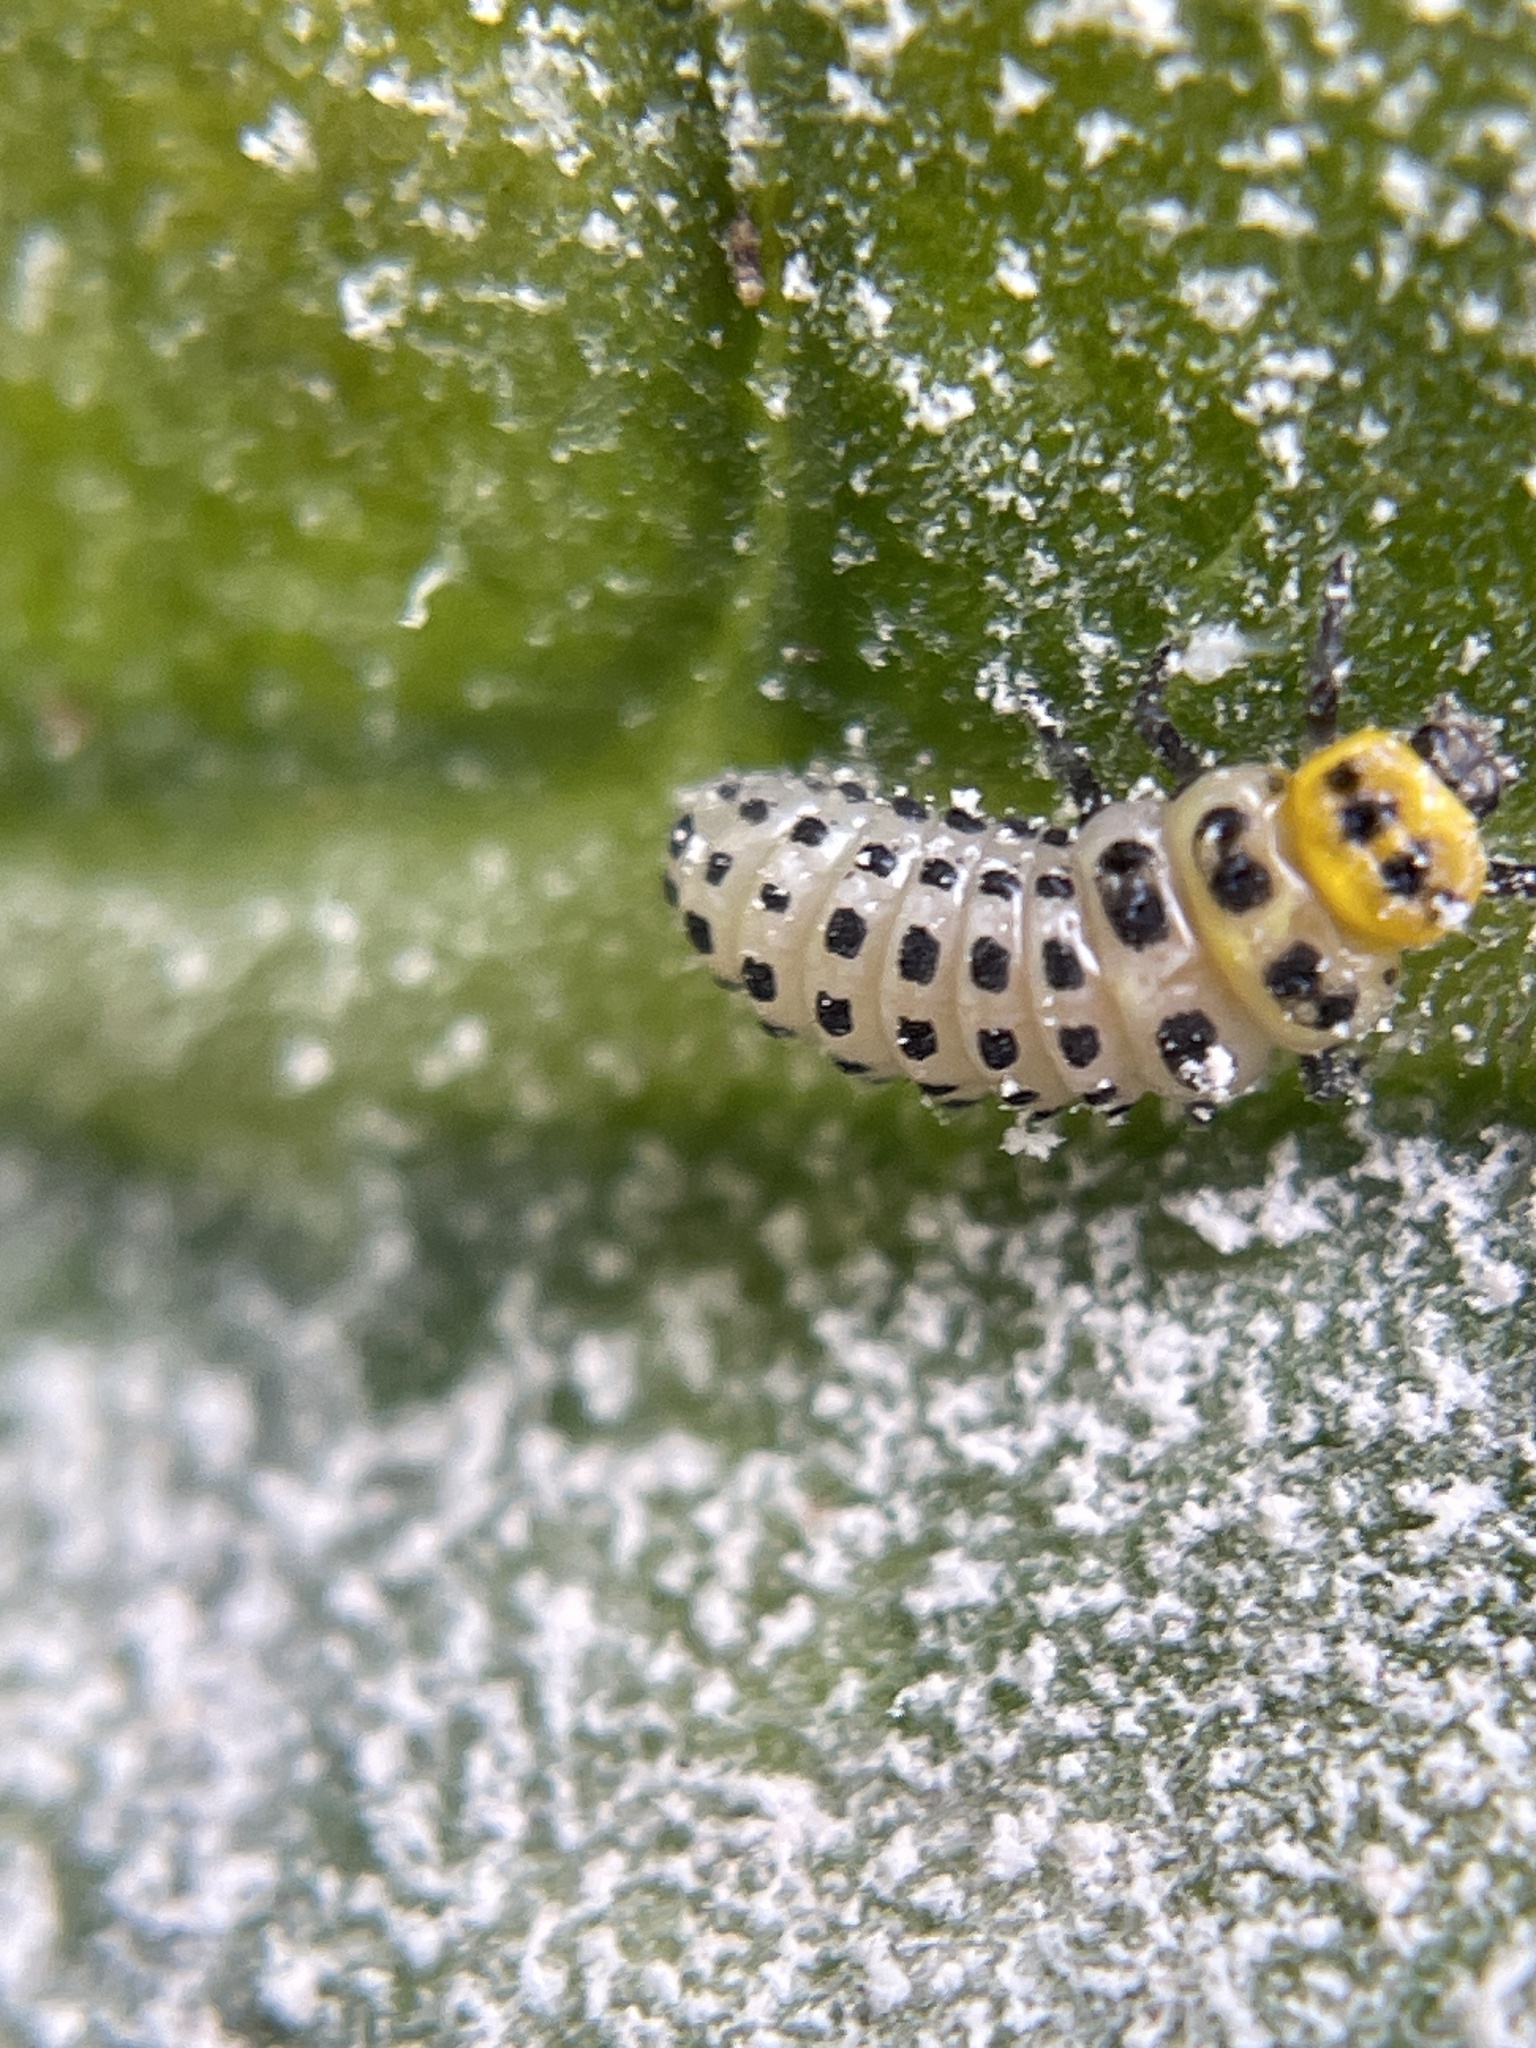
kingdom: Animalia
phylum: Arthropoda
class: Insecta
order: Coleoptera
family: Coccinellidae
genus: Illeis
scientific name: Illeis galbula
